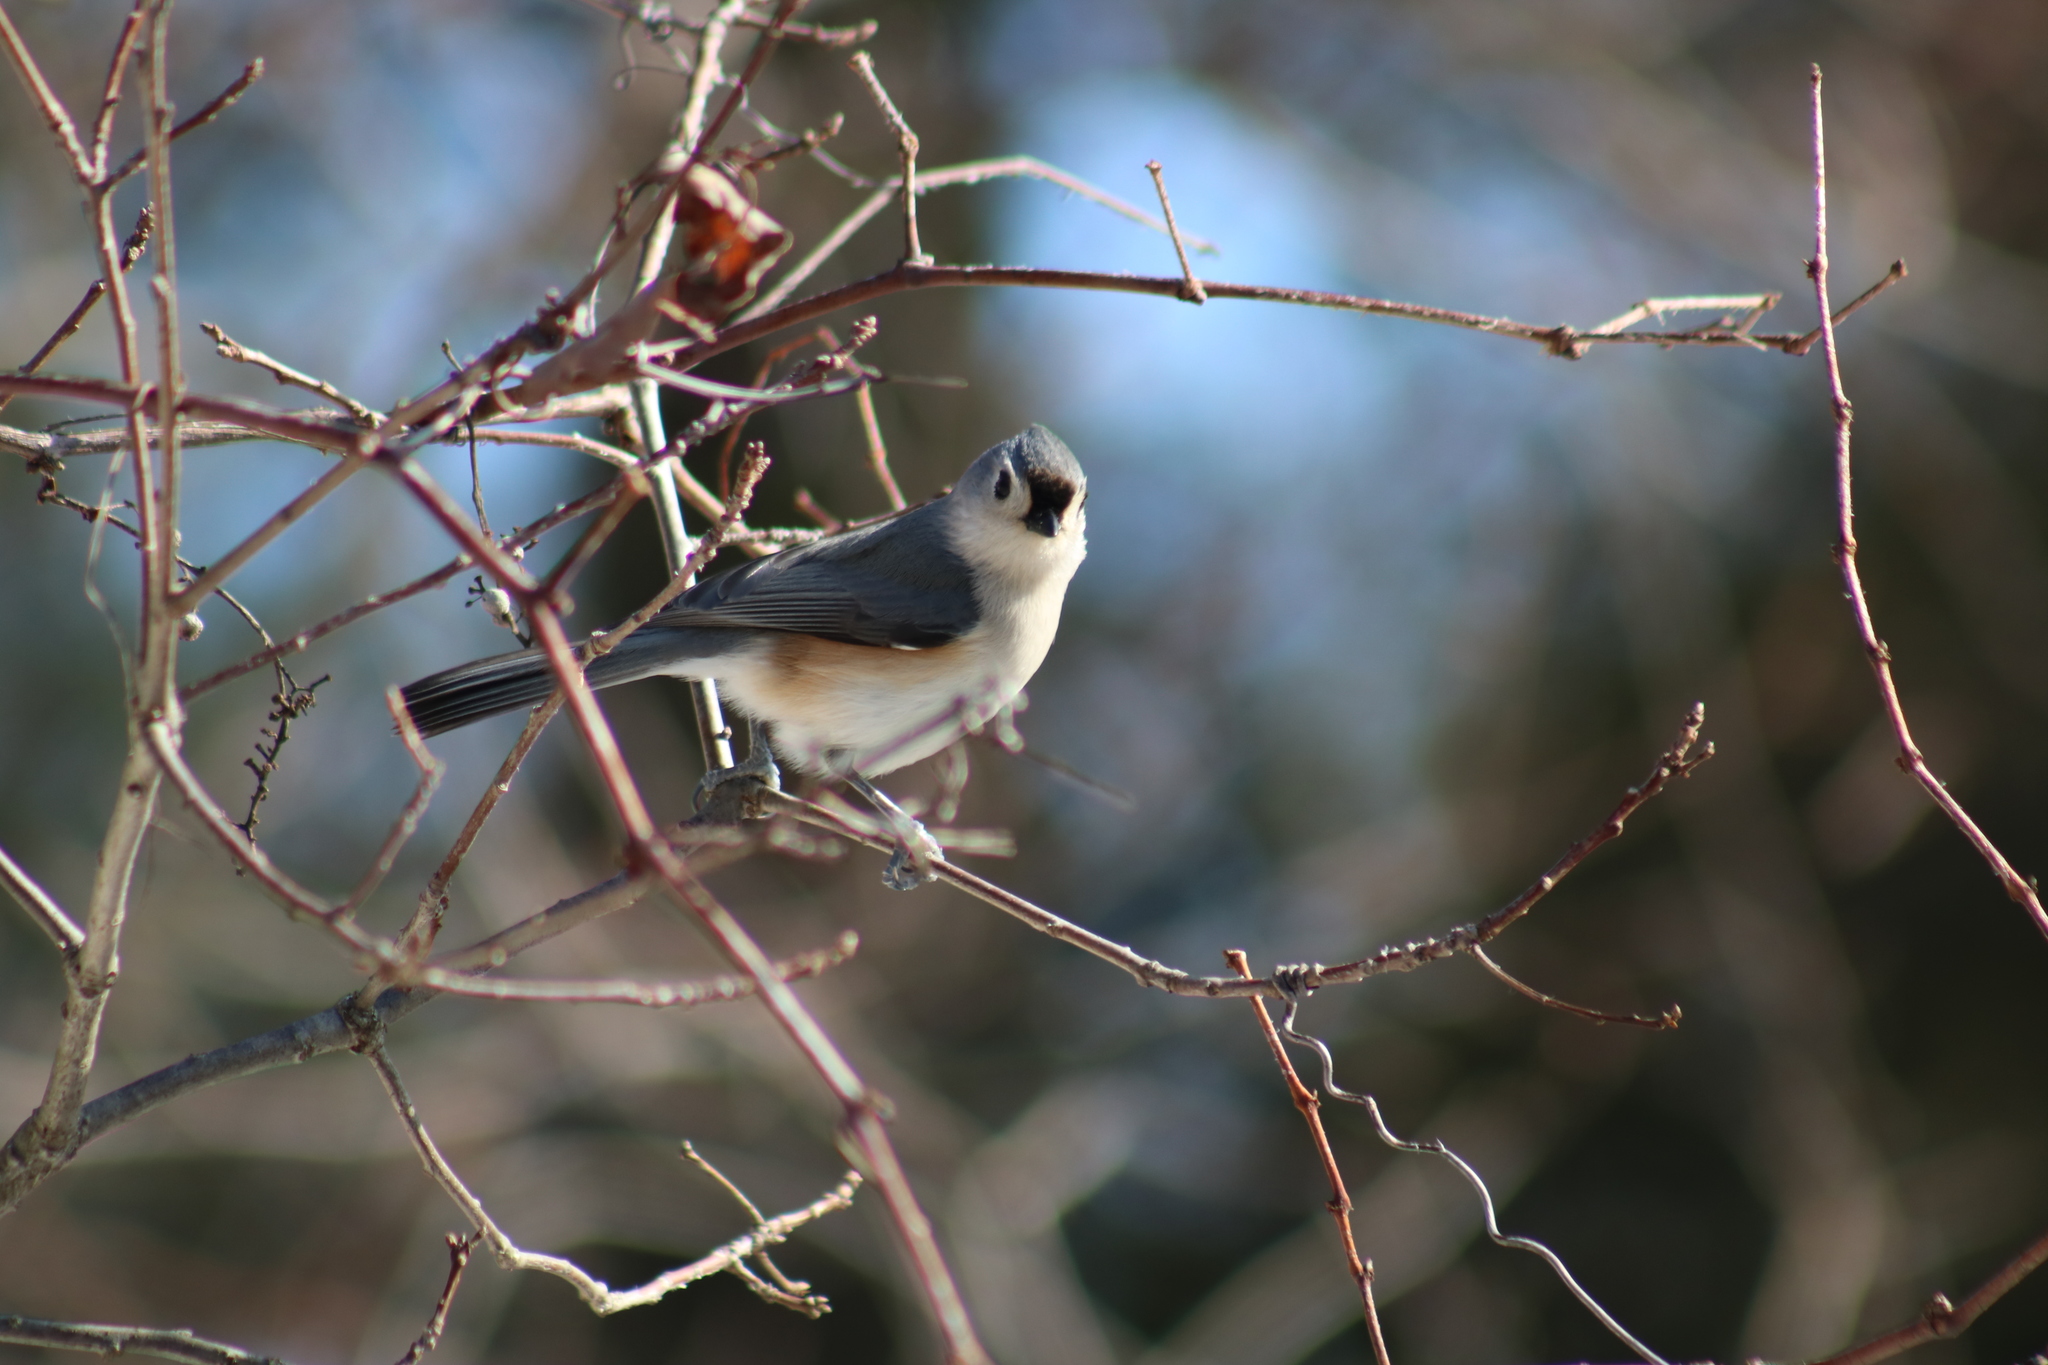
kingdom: Animalia
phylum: Chordata
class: Aves
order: Passeriformes
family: Paridae
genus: Baeolophus
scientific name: Baeolophus bicolor
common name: Tufted titmouse
